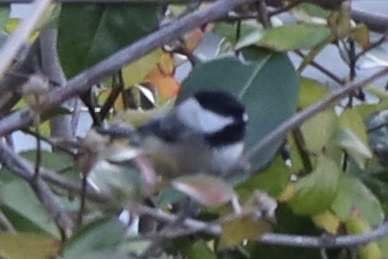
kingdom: Animalia
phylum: Chordata
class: Aves
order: Passeriformes
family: Paridae
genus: Poecile
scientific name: Poecile atricapillus
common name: Black-capped chickadee
